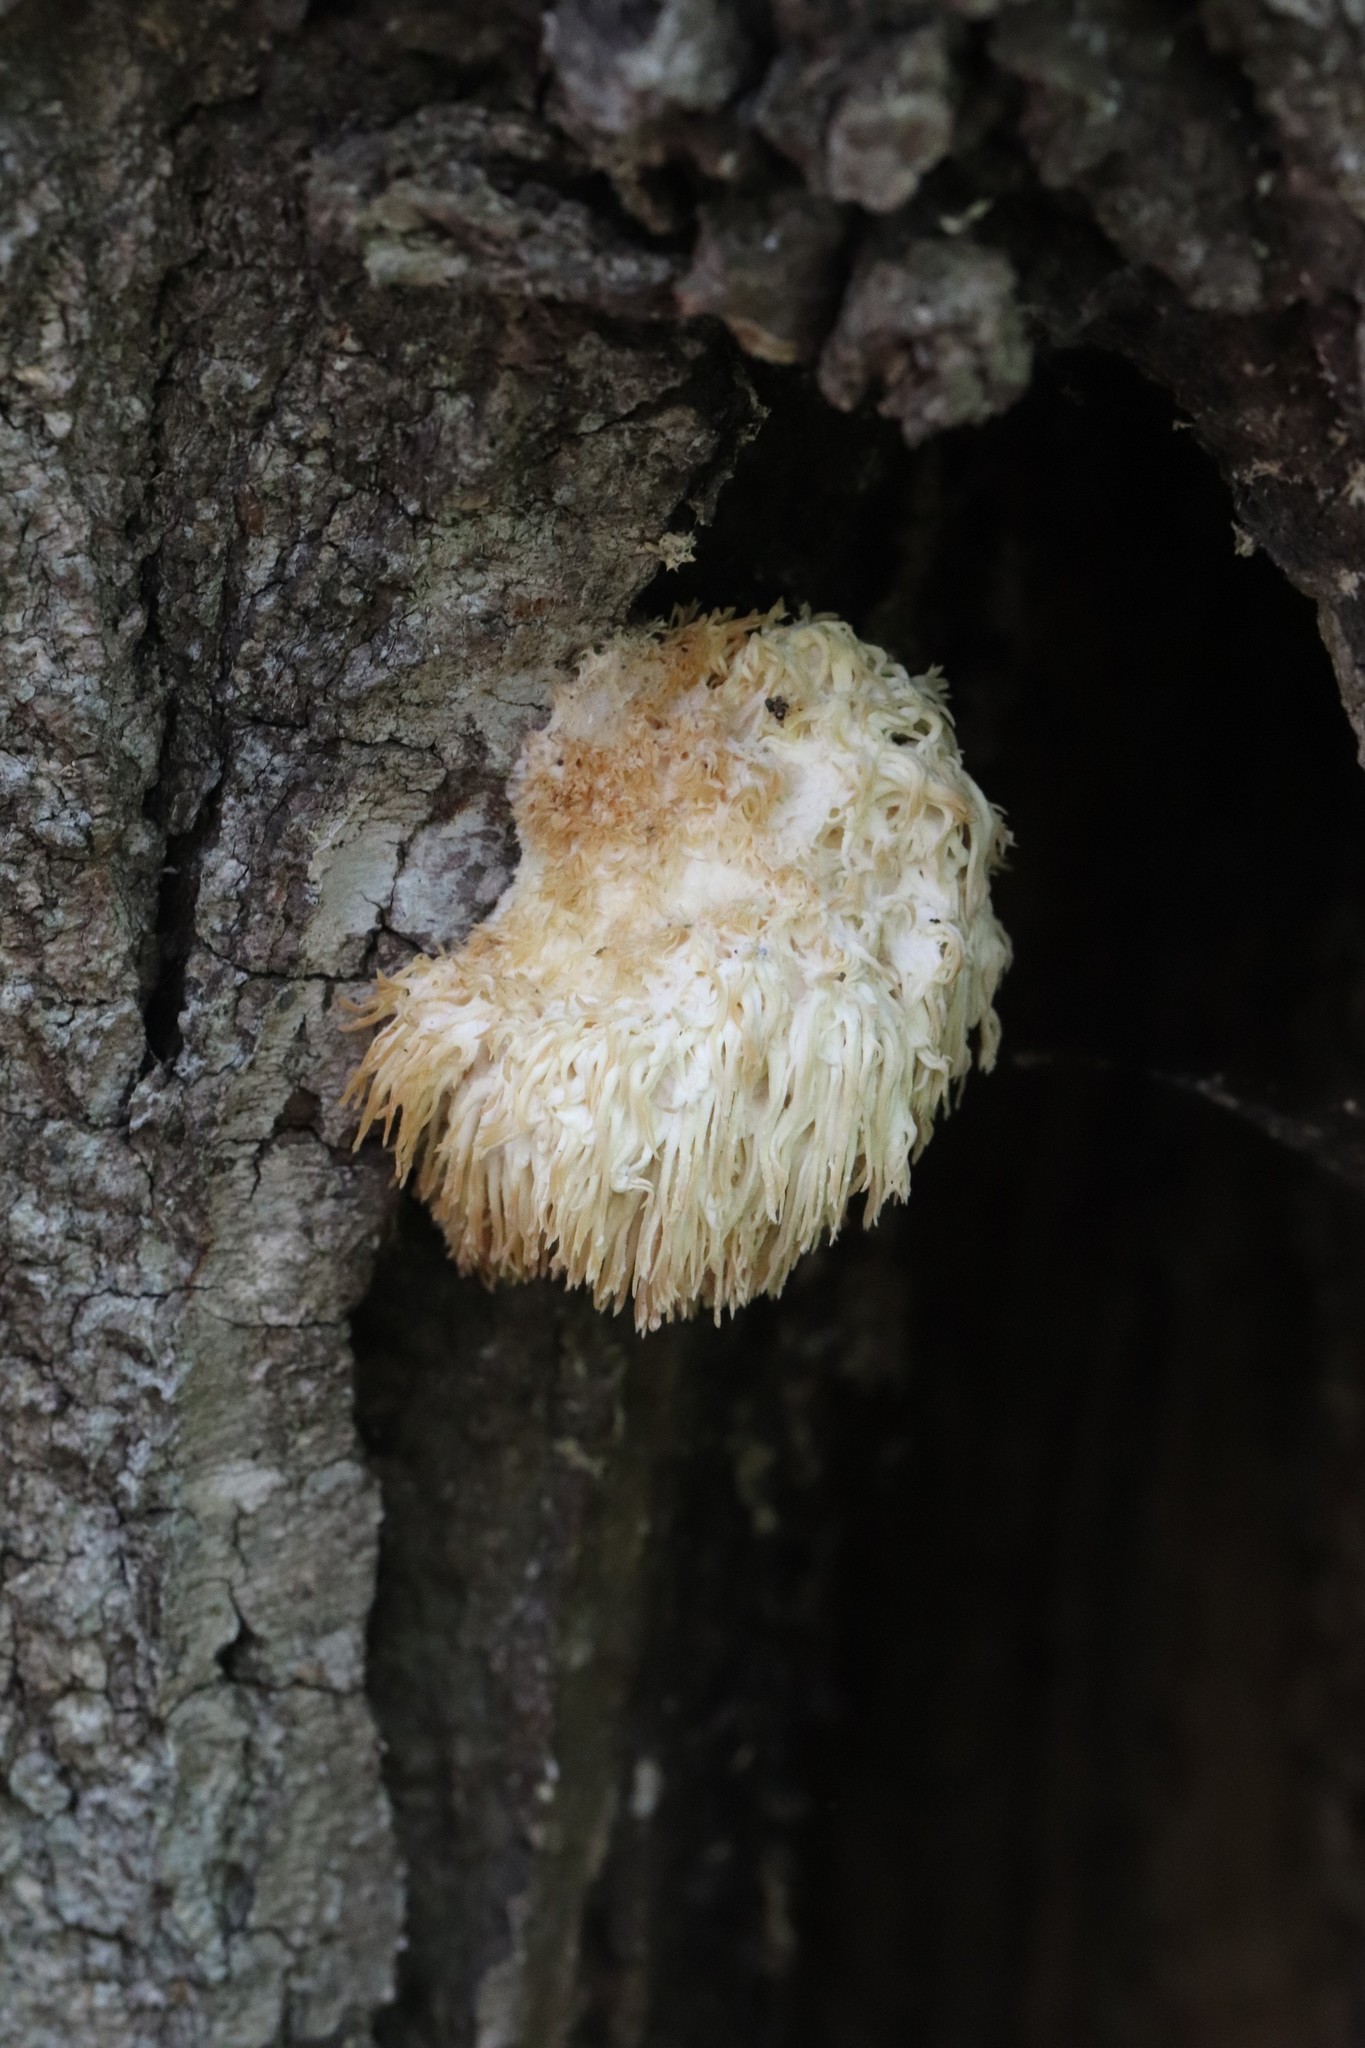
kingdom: Fungi
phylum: Basidiomycota
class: Agaricomycetes
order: Russulales
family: Hericiaceae
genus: Hericium
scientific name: Hericium erinaceus
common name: Bearded tooth
